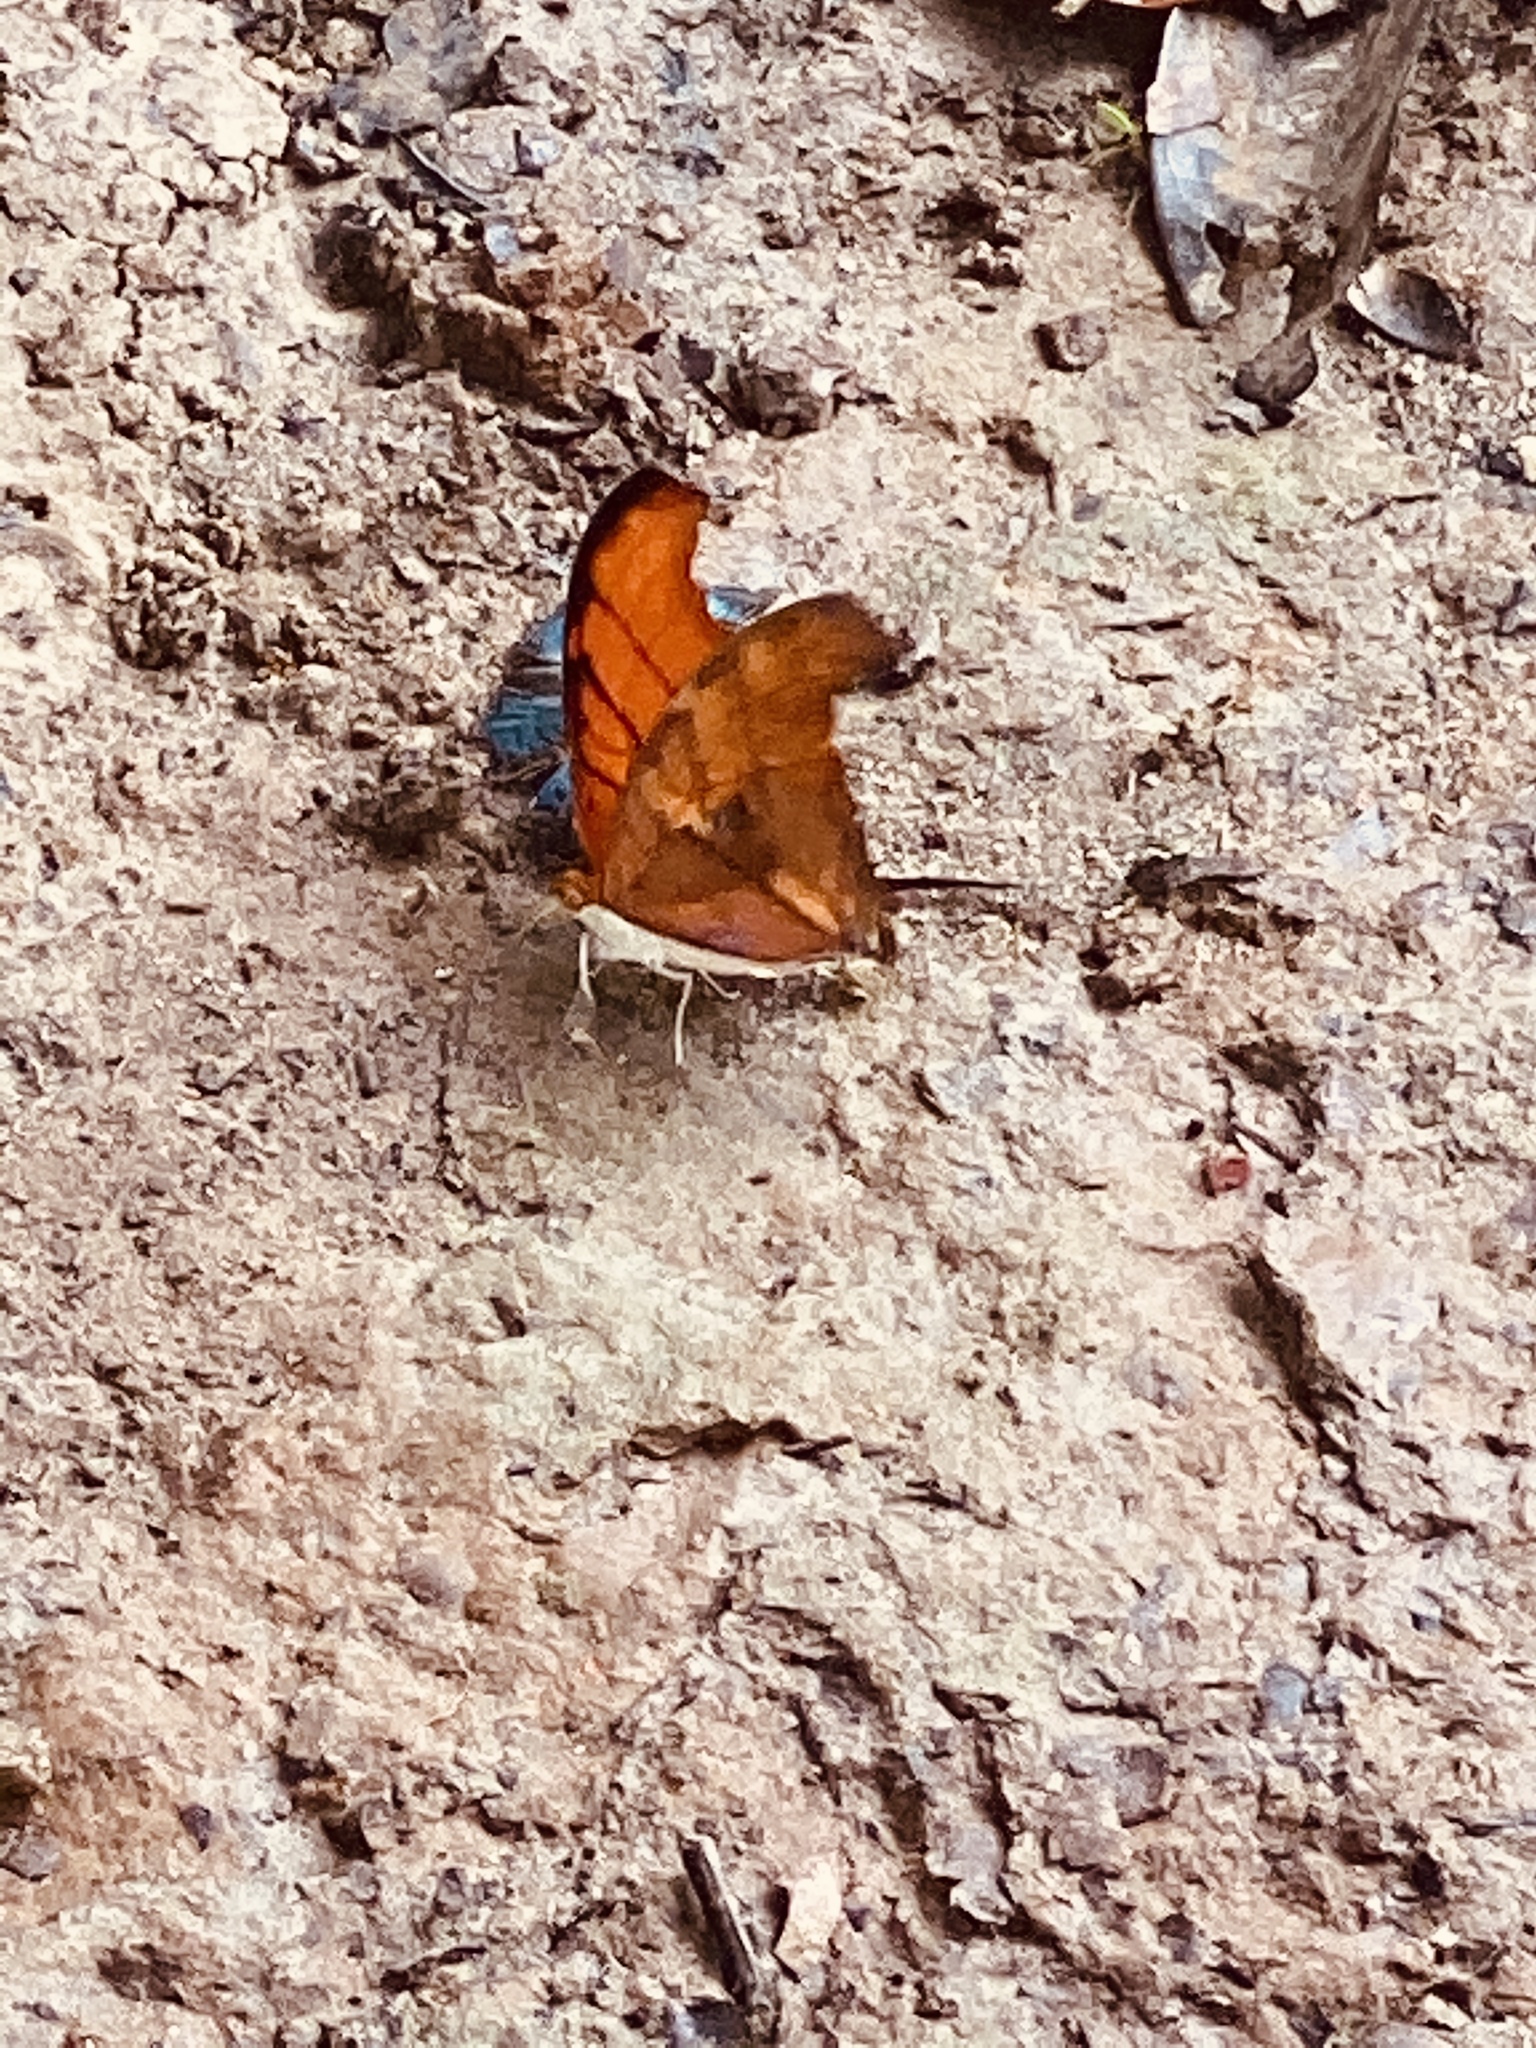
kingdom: Animalia
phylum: Arthropoda
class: Insecta
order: Lepidoptera
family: Nymphalidae
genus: Marpesia
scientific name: Marpesia petreus
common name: Red dagger wing
